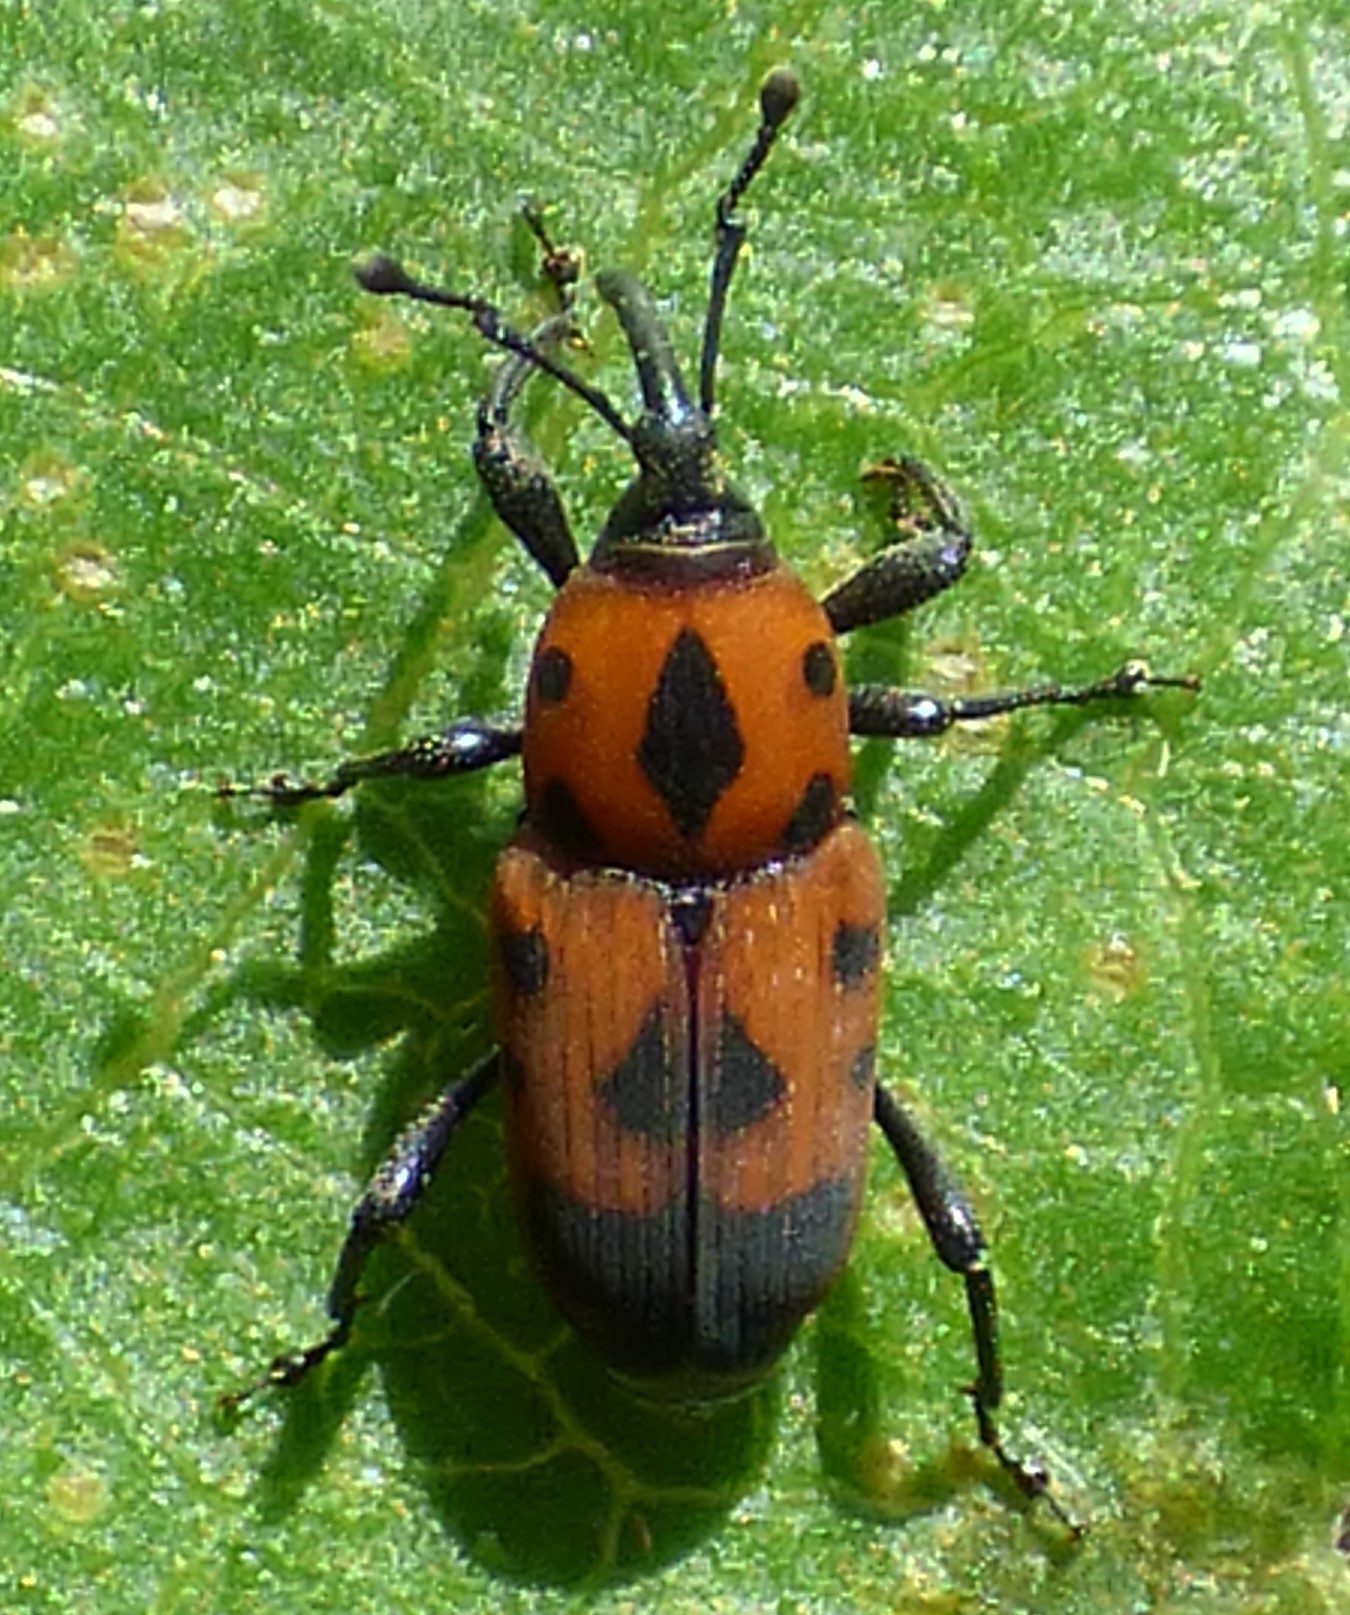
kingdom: Animalia
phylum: Arthropoda
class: Insecta
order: Coleoptera
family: Dryophthoridae
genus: Rhodobaenus
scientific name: Rhodobaenus quinquepunctatus
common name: Cocklebur weevil
